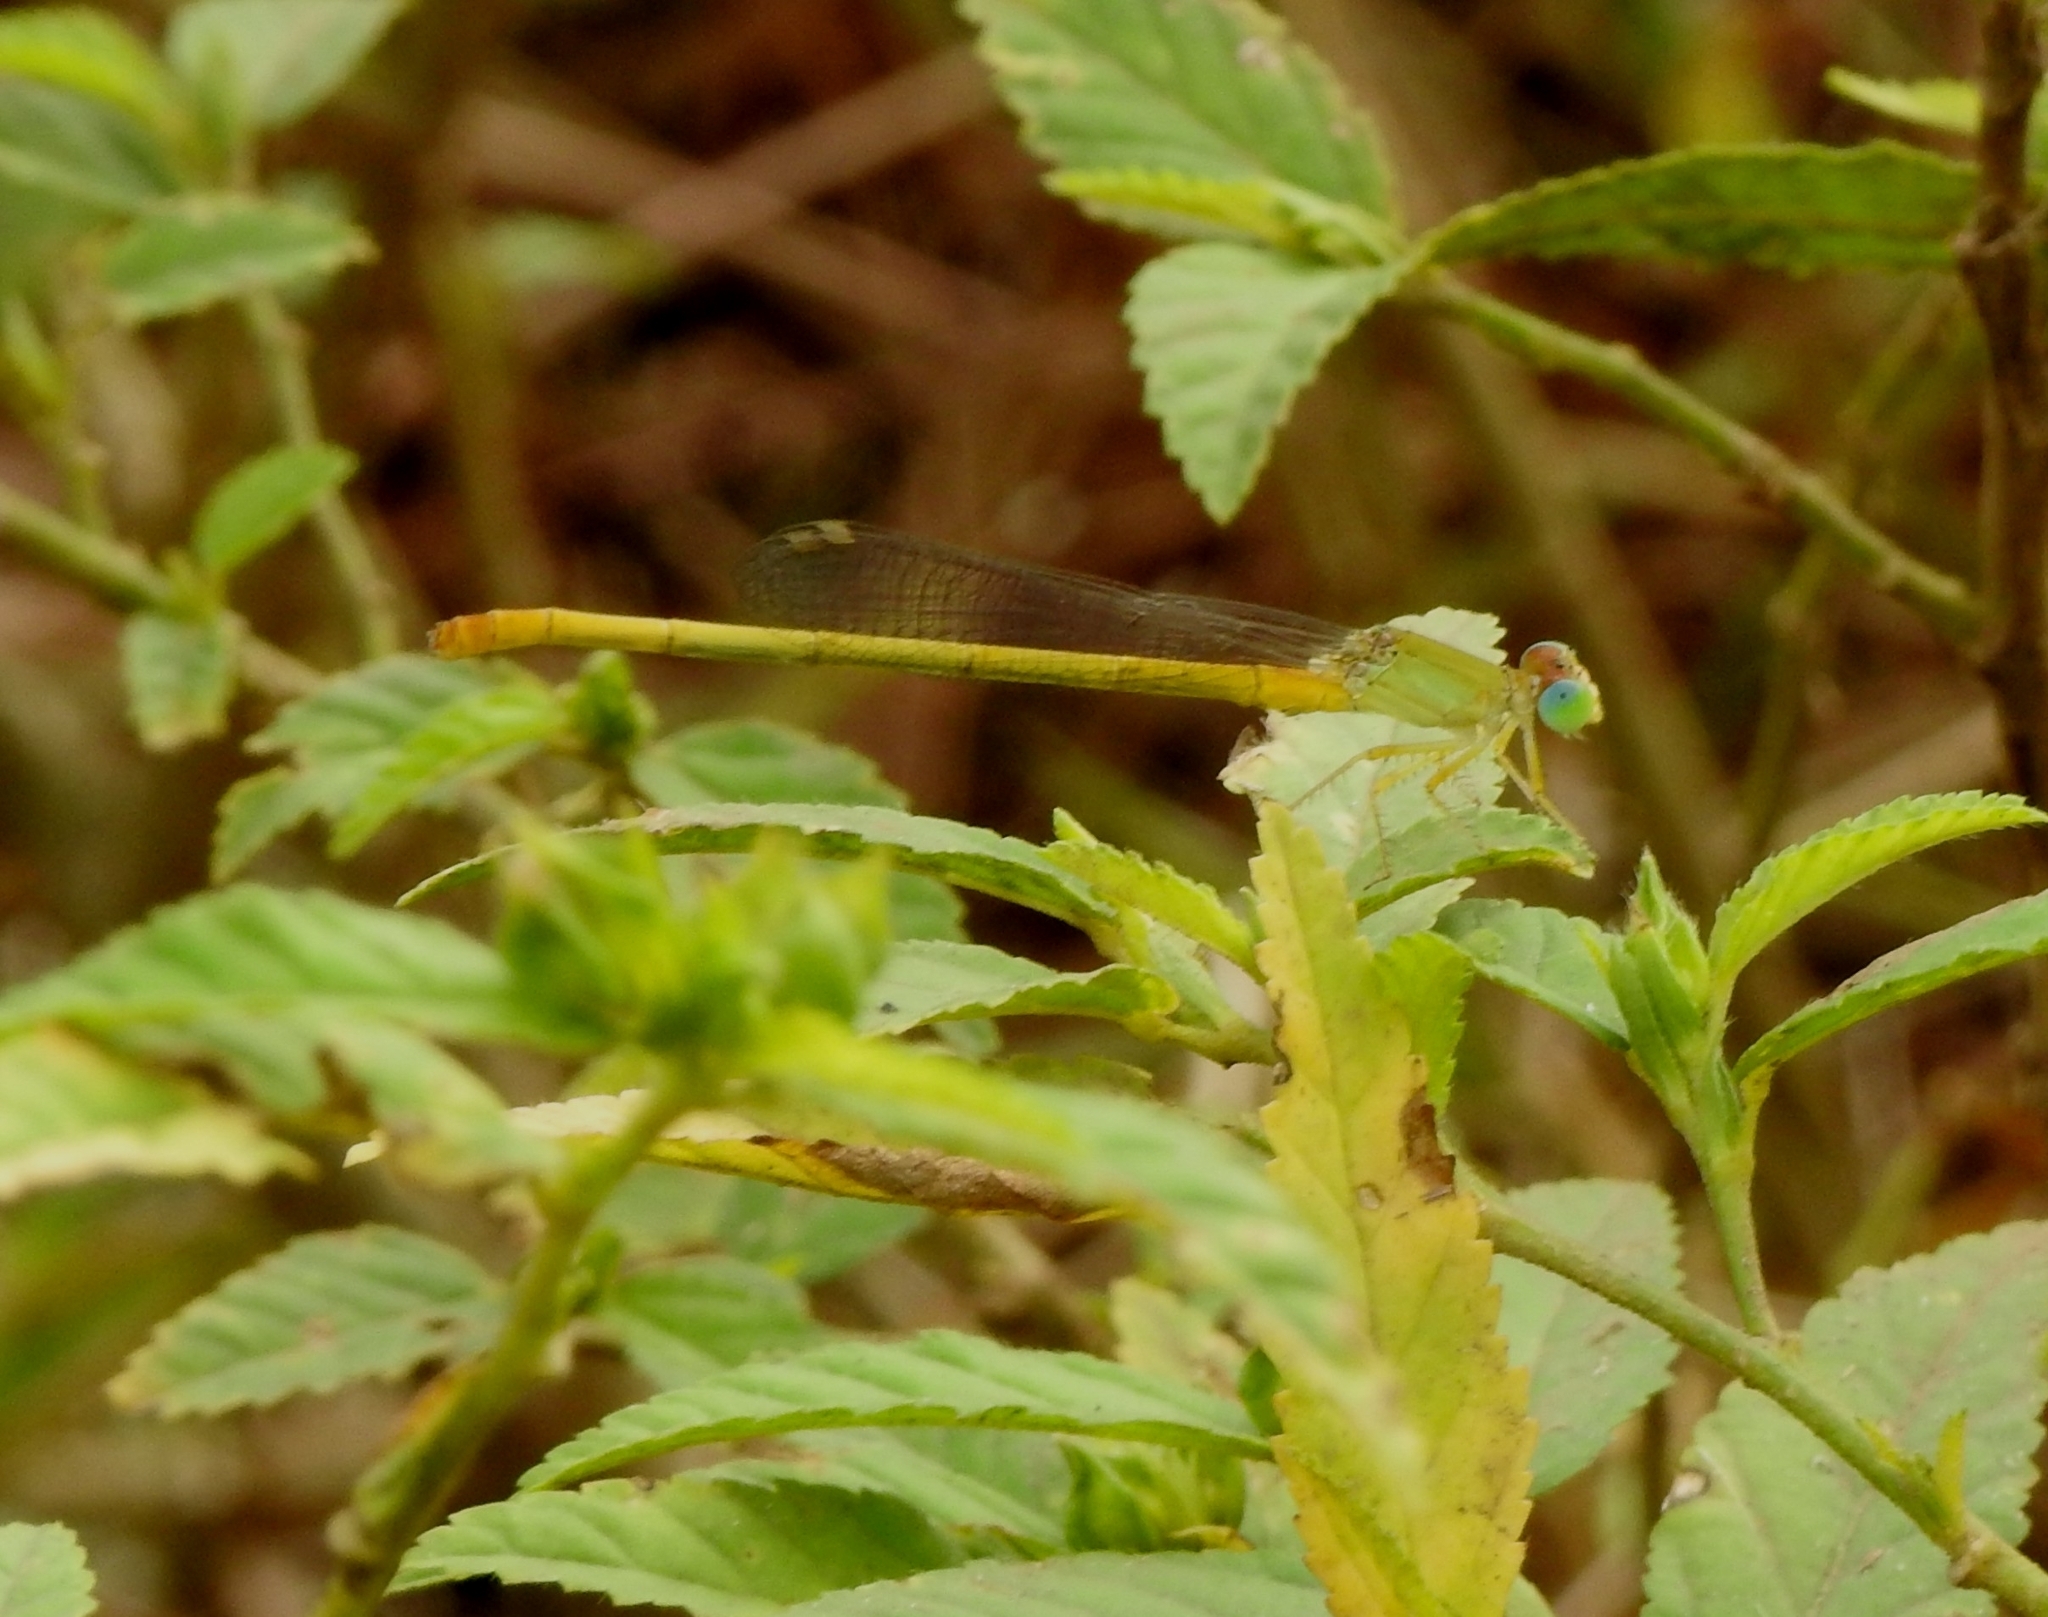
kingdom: Animalia
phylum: Arthropoda
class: Insecta
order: Odonata
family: Coenagrionidae
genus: Ceriagrion
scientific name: Ceriagrion coromandelianum
